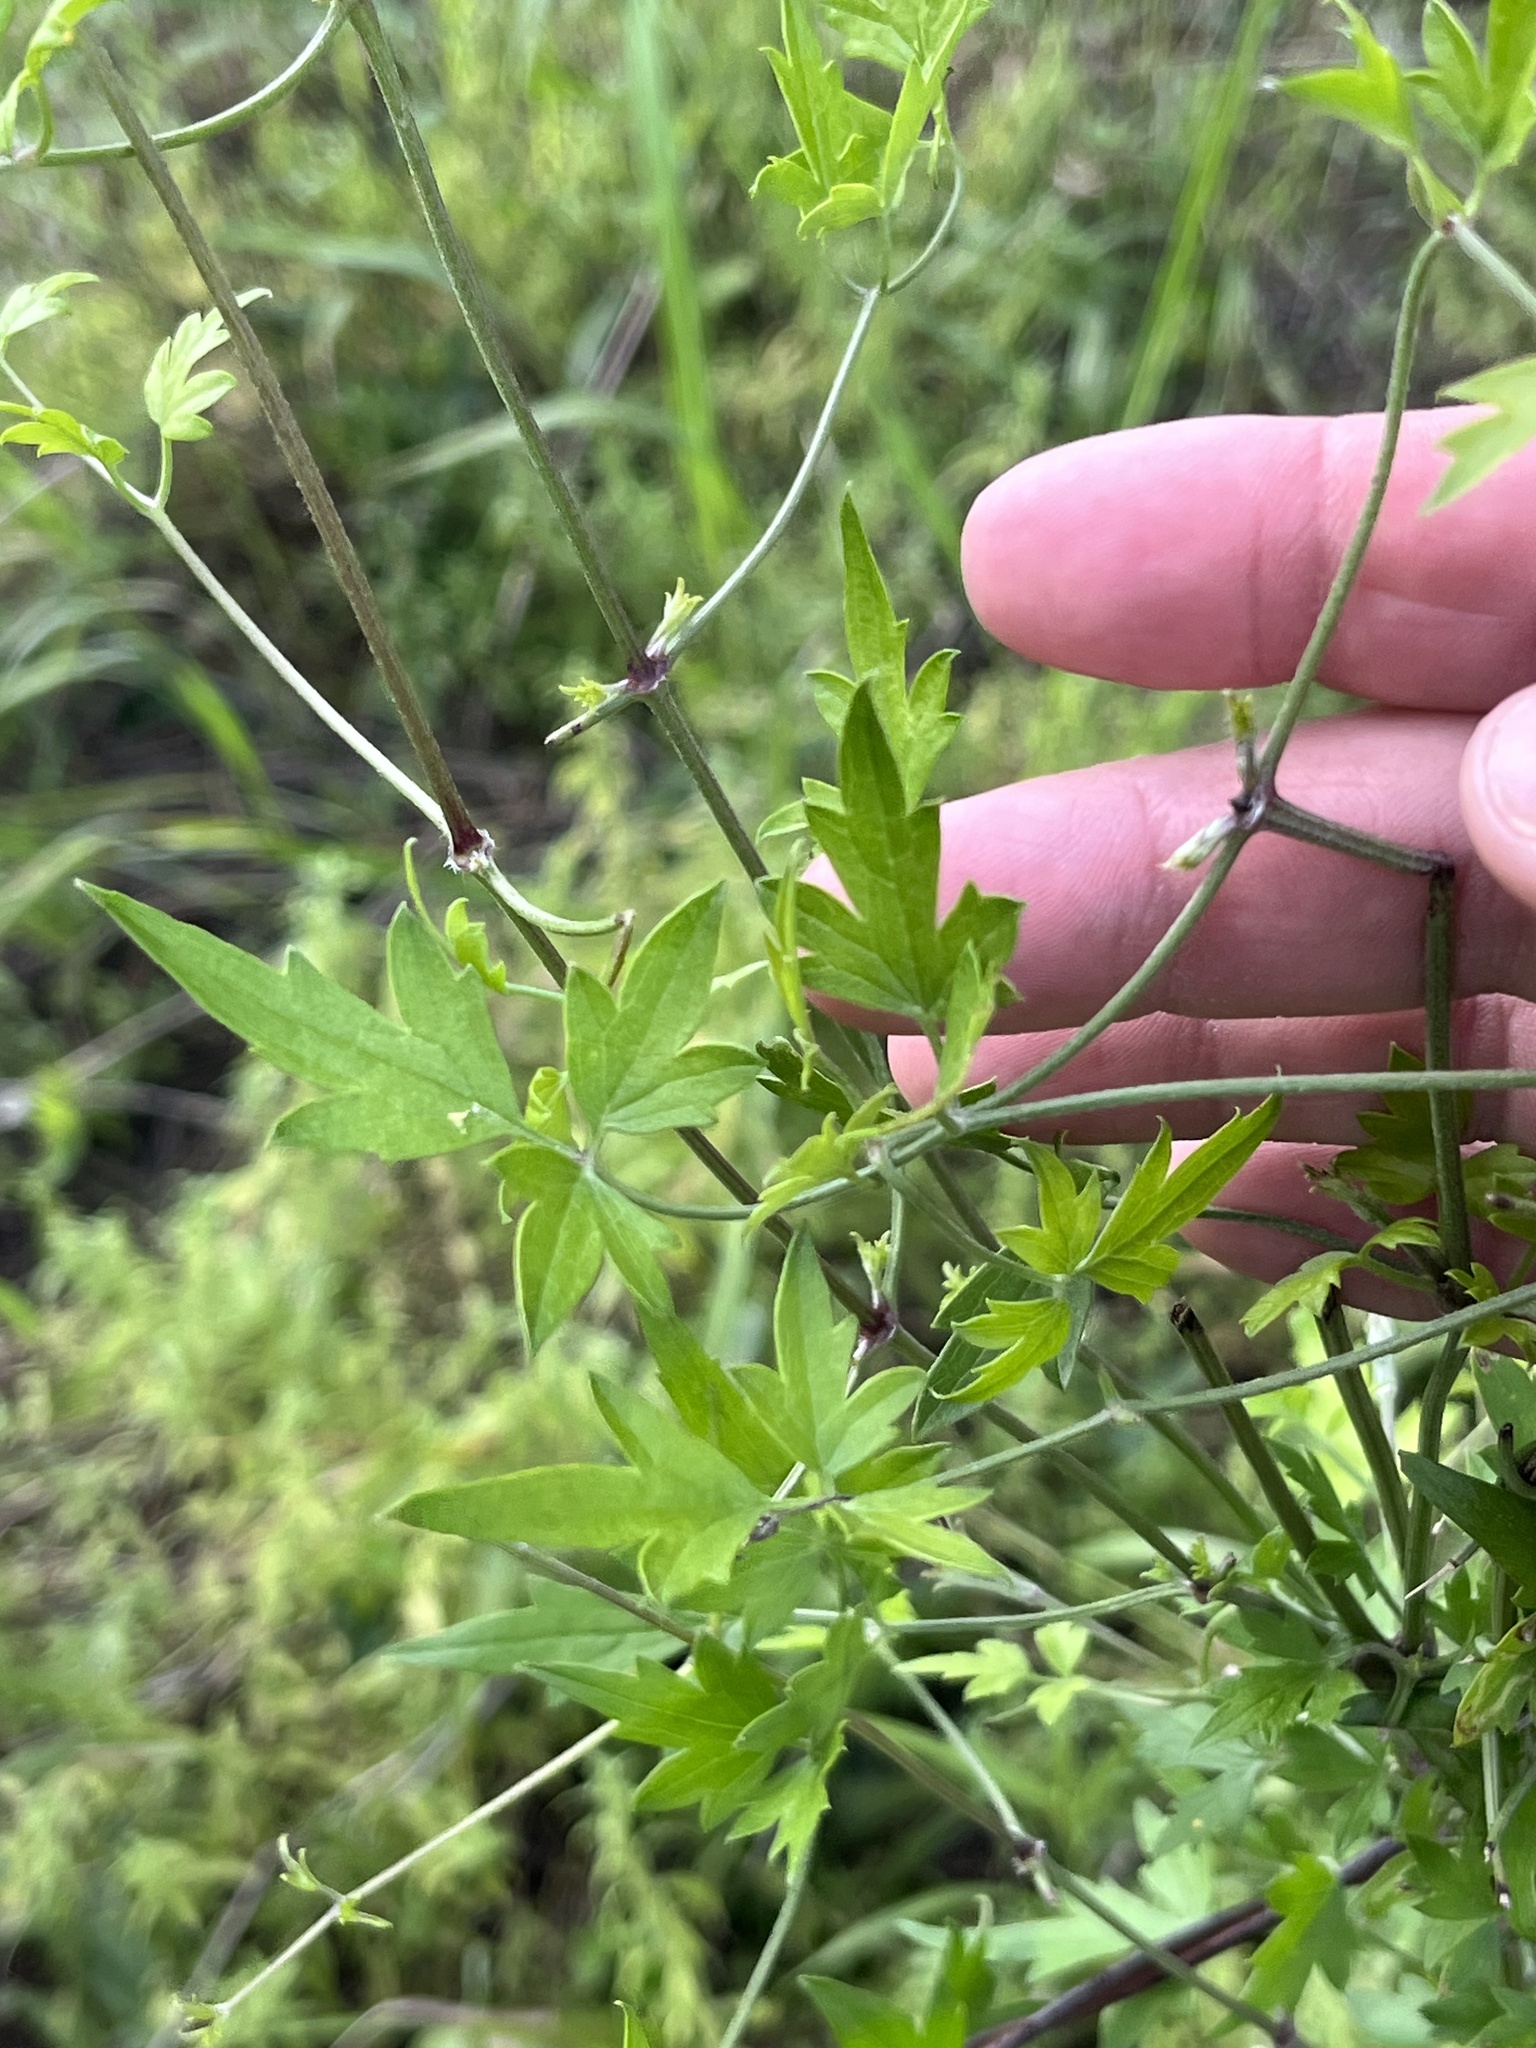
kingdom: Plantae
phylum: Tracheophyta
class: Magnoliopsida
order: Ranunculales
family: Ranunculaceae
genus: Clematis
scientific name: Clematis drummondii
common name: Texas virgin's bower
